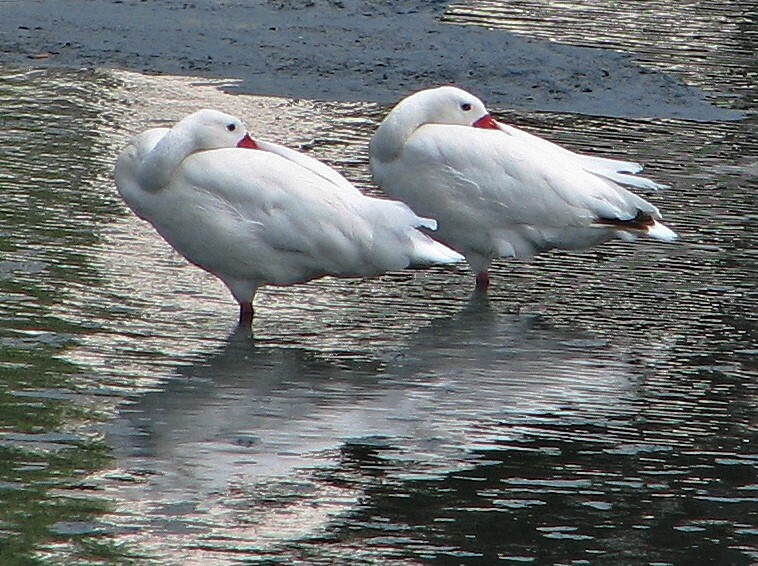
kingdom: Animalia
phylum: Chordata
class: Aves
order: Anseriformes
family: Anatidae
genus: Coscoroba
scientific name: Coscoroba coscoroba
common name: Coscoroba swan
